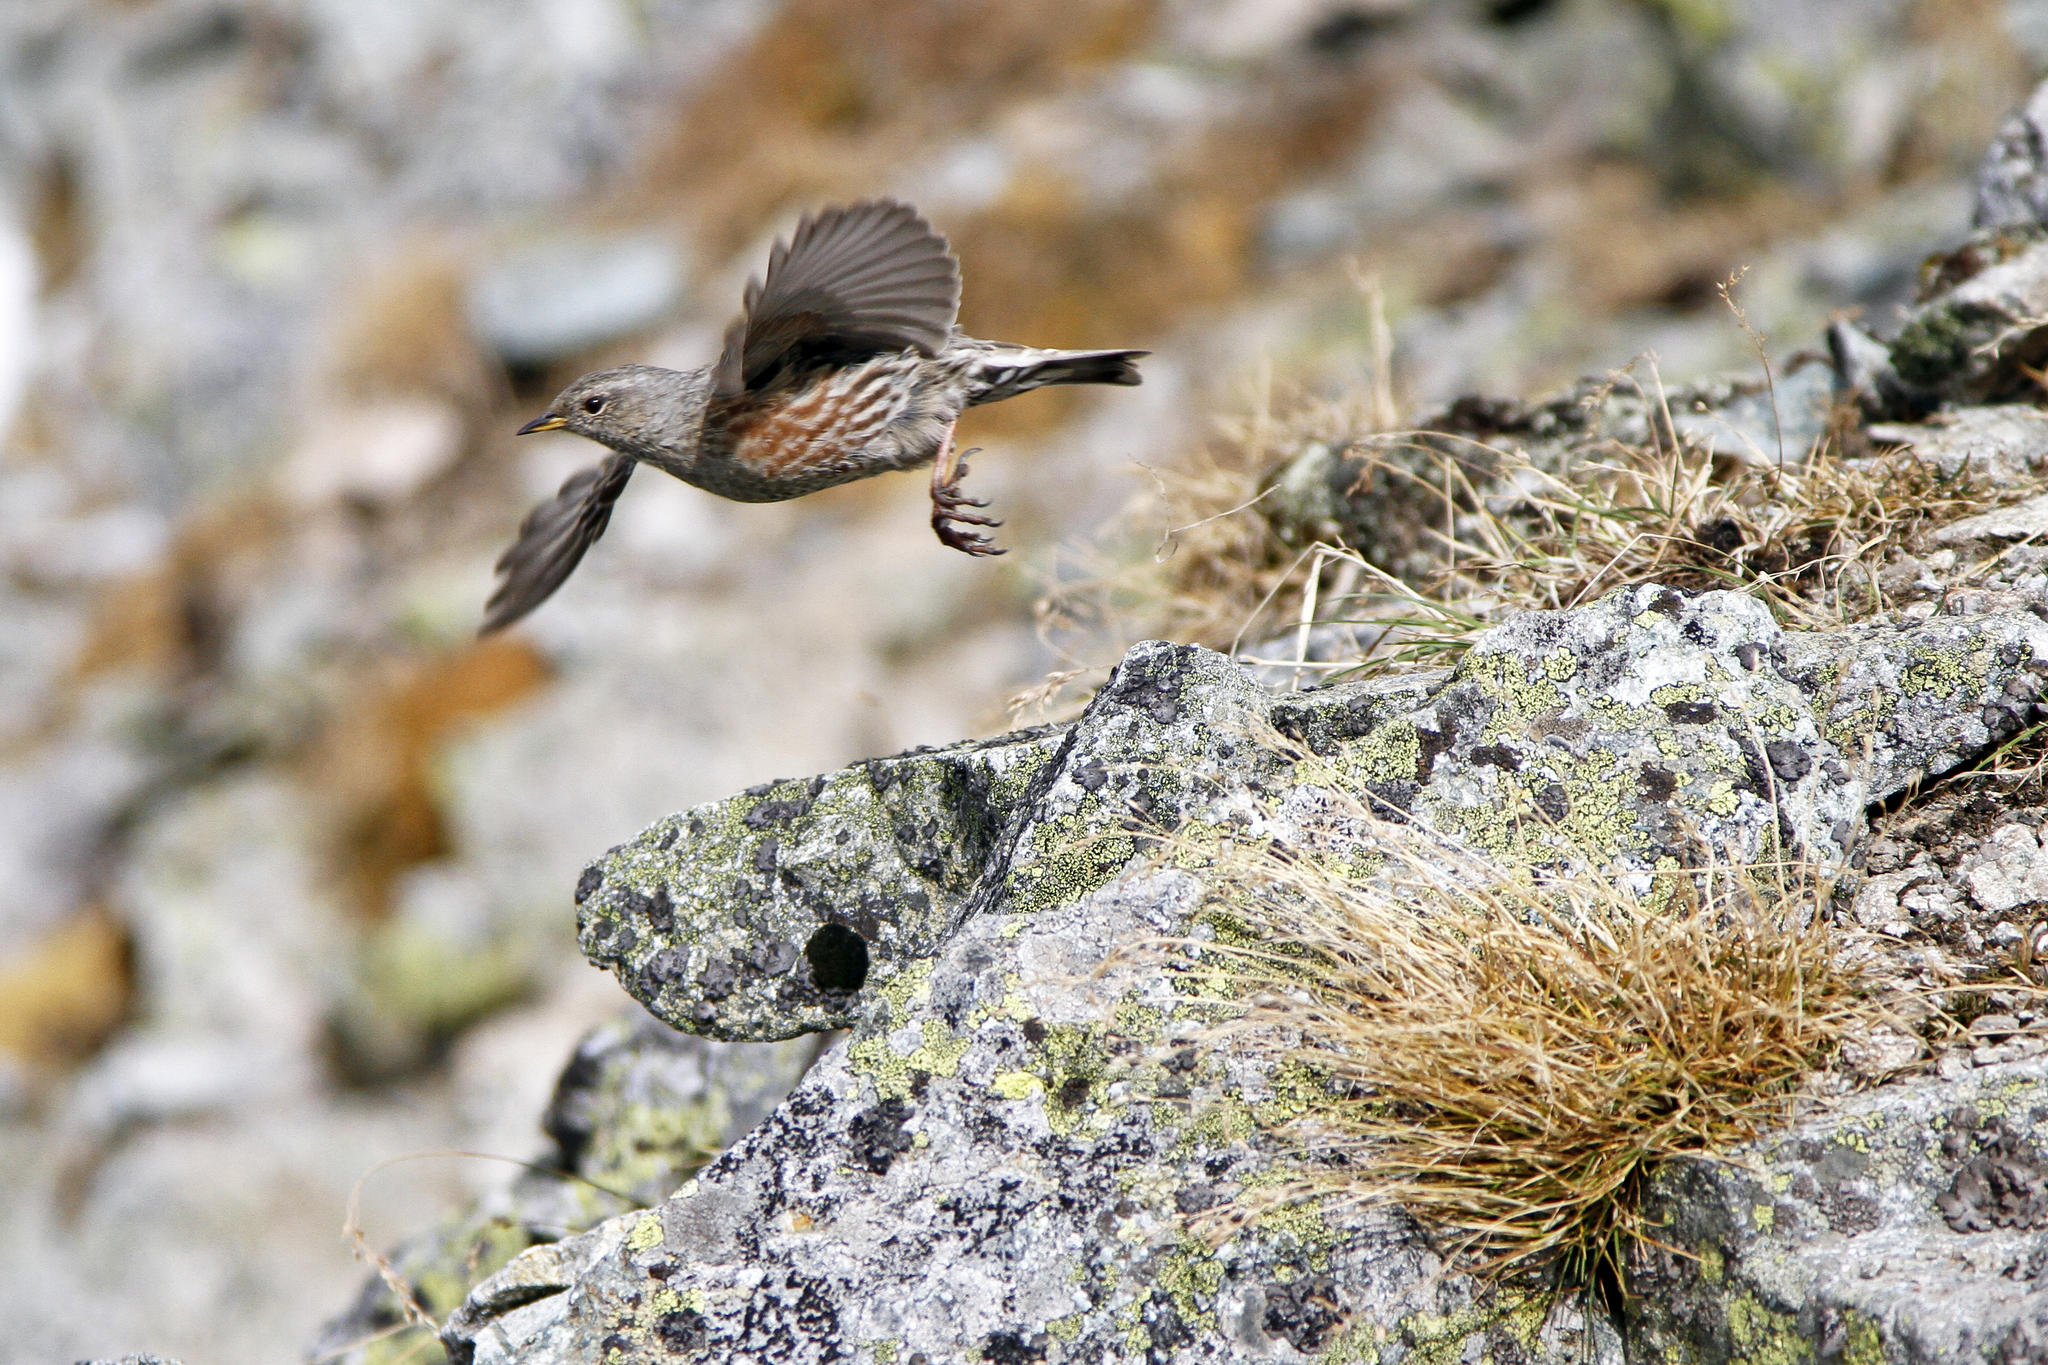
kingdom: Animalia
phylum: Chordata
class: Aves
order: Passeriformes
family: Prunellidae
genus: Prunella
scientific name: Prunella collaris
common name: Alpine accentor
